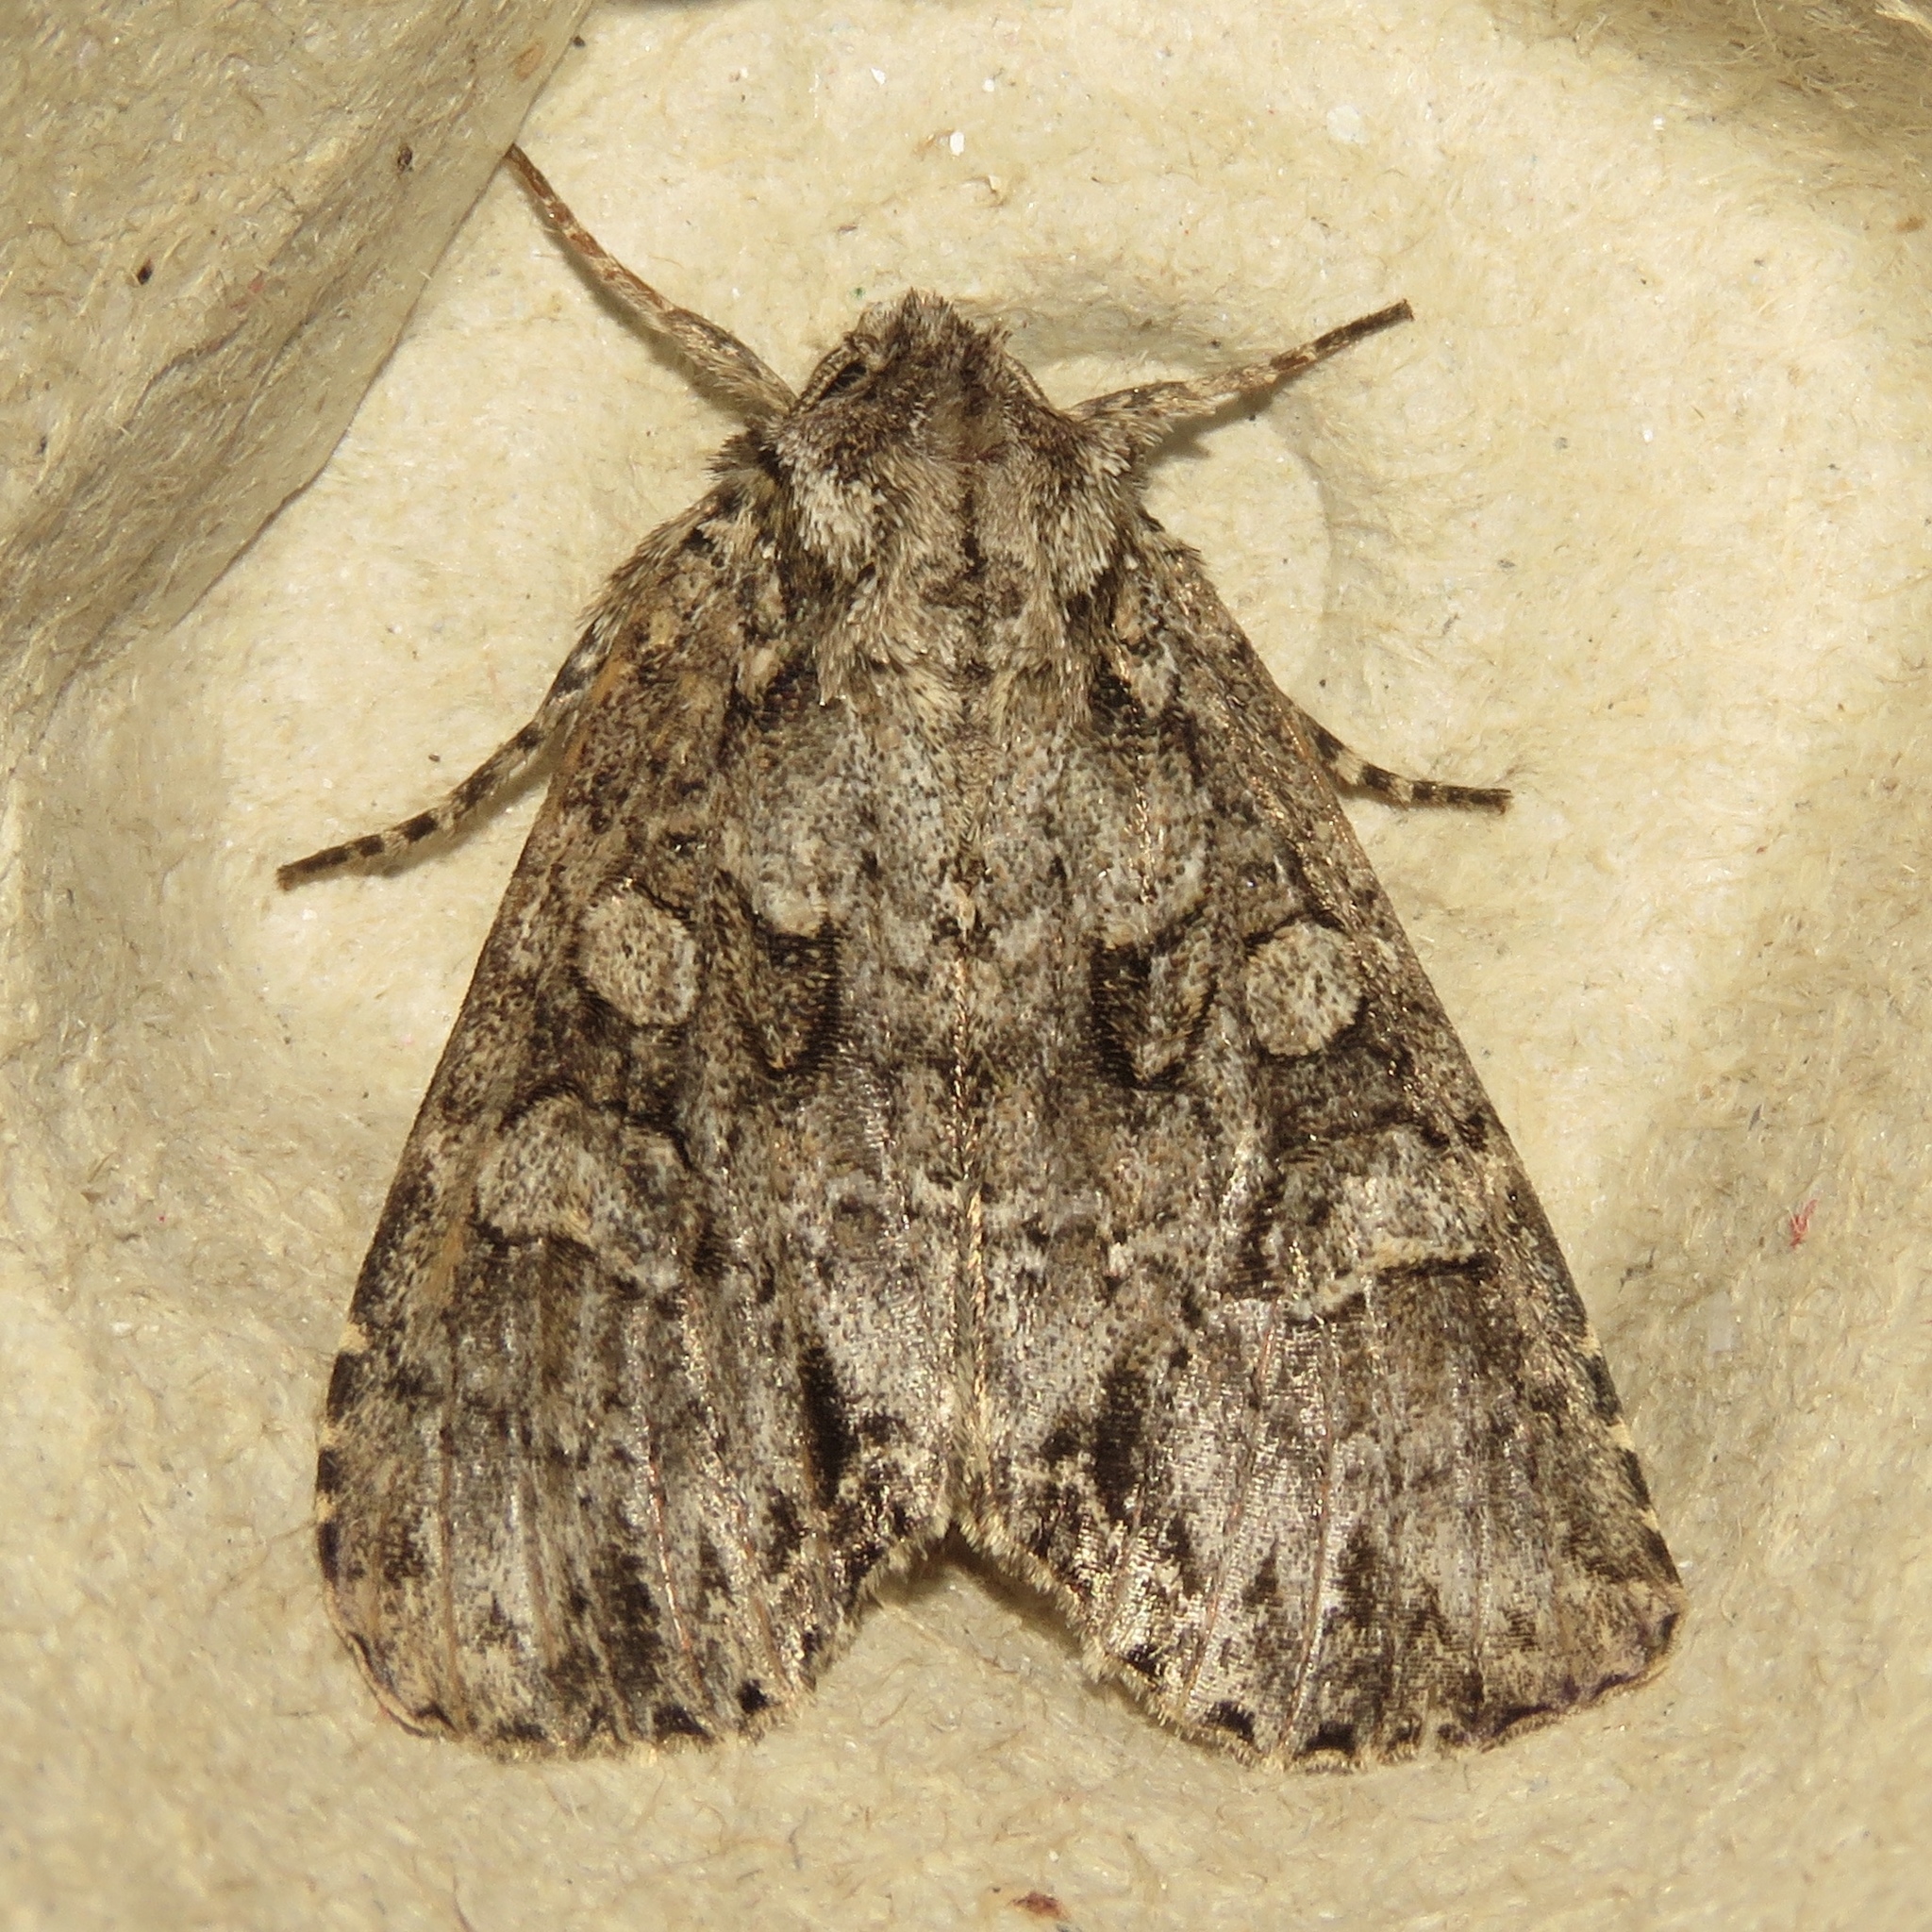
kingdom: Animalia
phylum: Arthropoda
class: Insecta
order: Lepidoptera
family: Noctuidae
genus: Polia
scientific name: Polia imbrifera
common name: Cloudy arches moth
